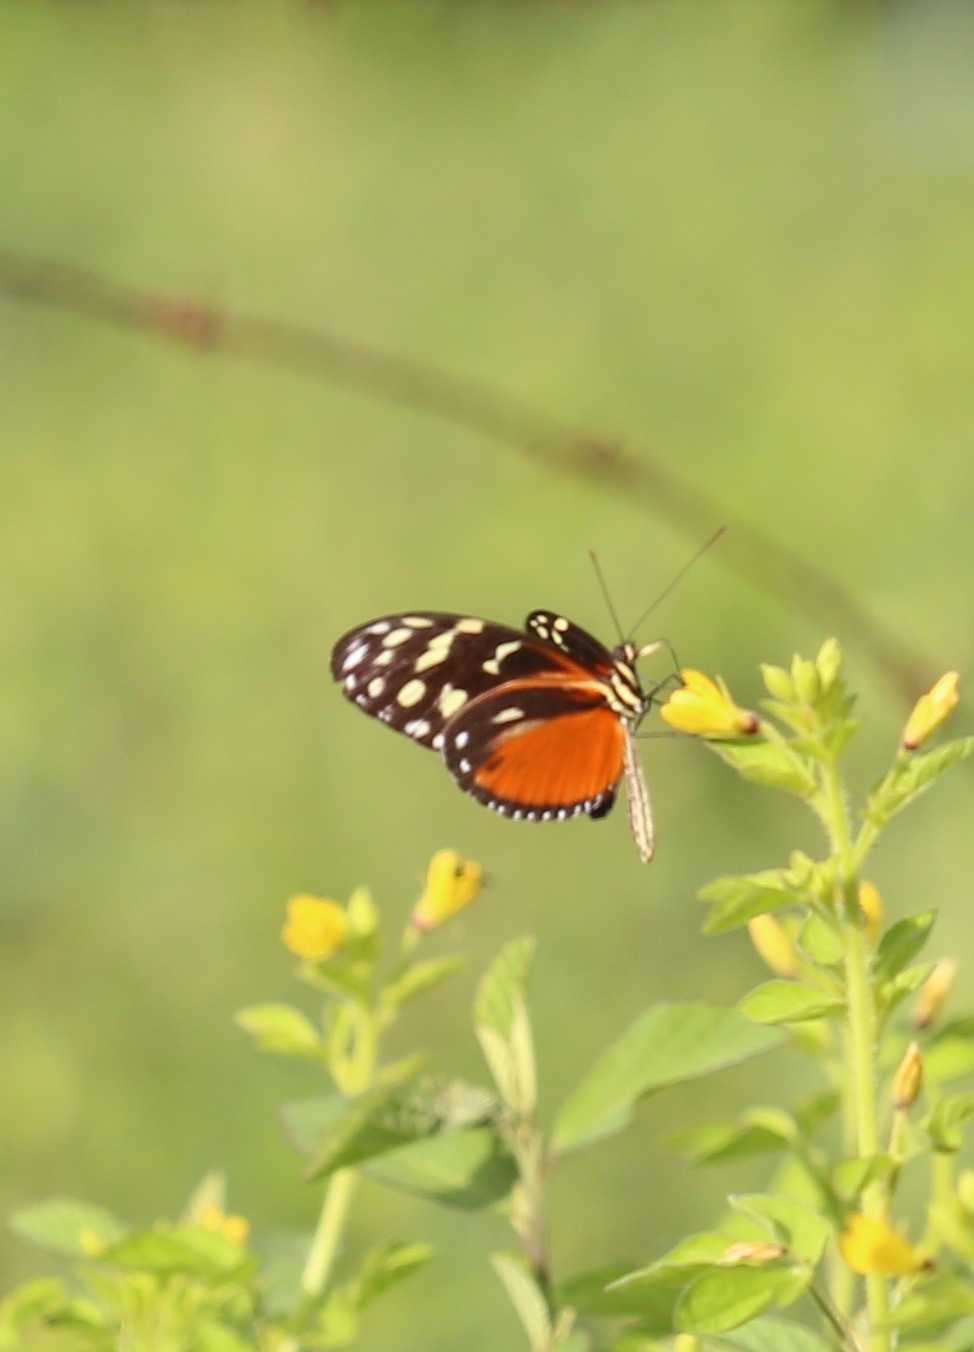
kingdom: Animalia
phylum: Arthropoda
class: Insecta
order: Lepidoptera
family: Nymphalidae
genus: Heliconius
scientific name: Heliconius hecale
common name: Tiger longwing
